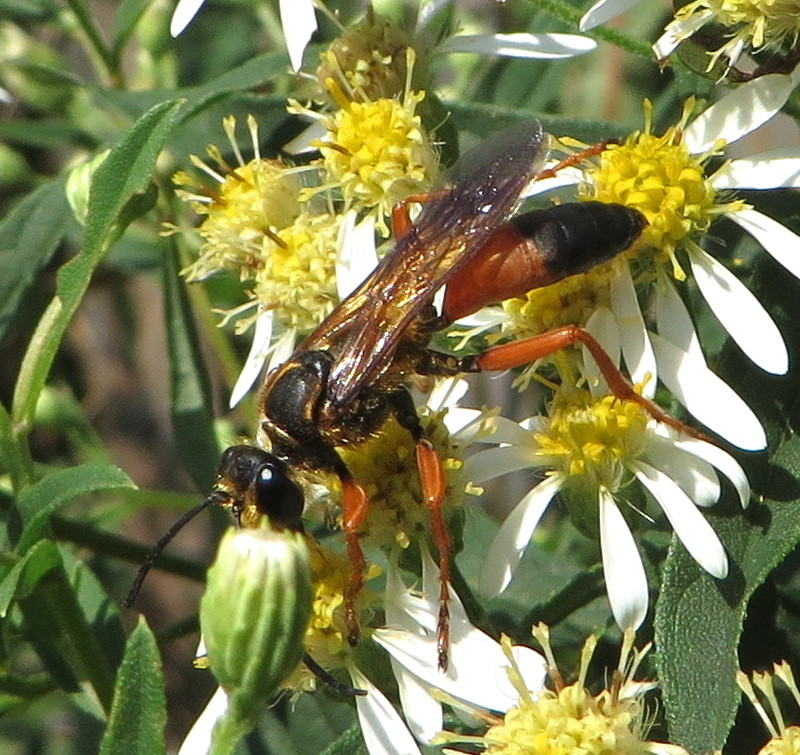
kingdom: Animalia
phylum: Arthropoda
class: Insecta
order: Hymenoptera
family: Sphecidae
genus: Sphex
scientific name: Sphex ichneumoneus
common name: Great golden digger wasp
